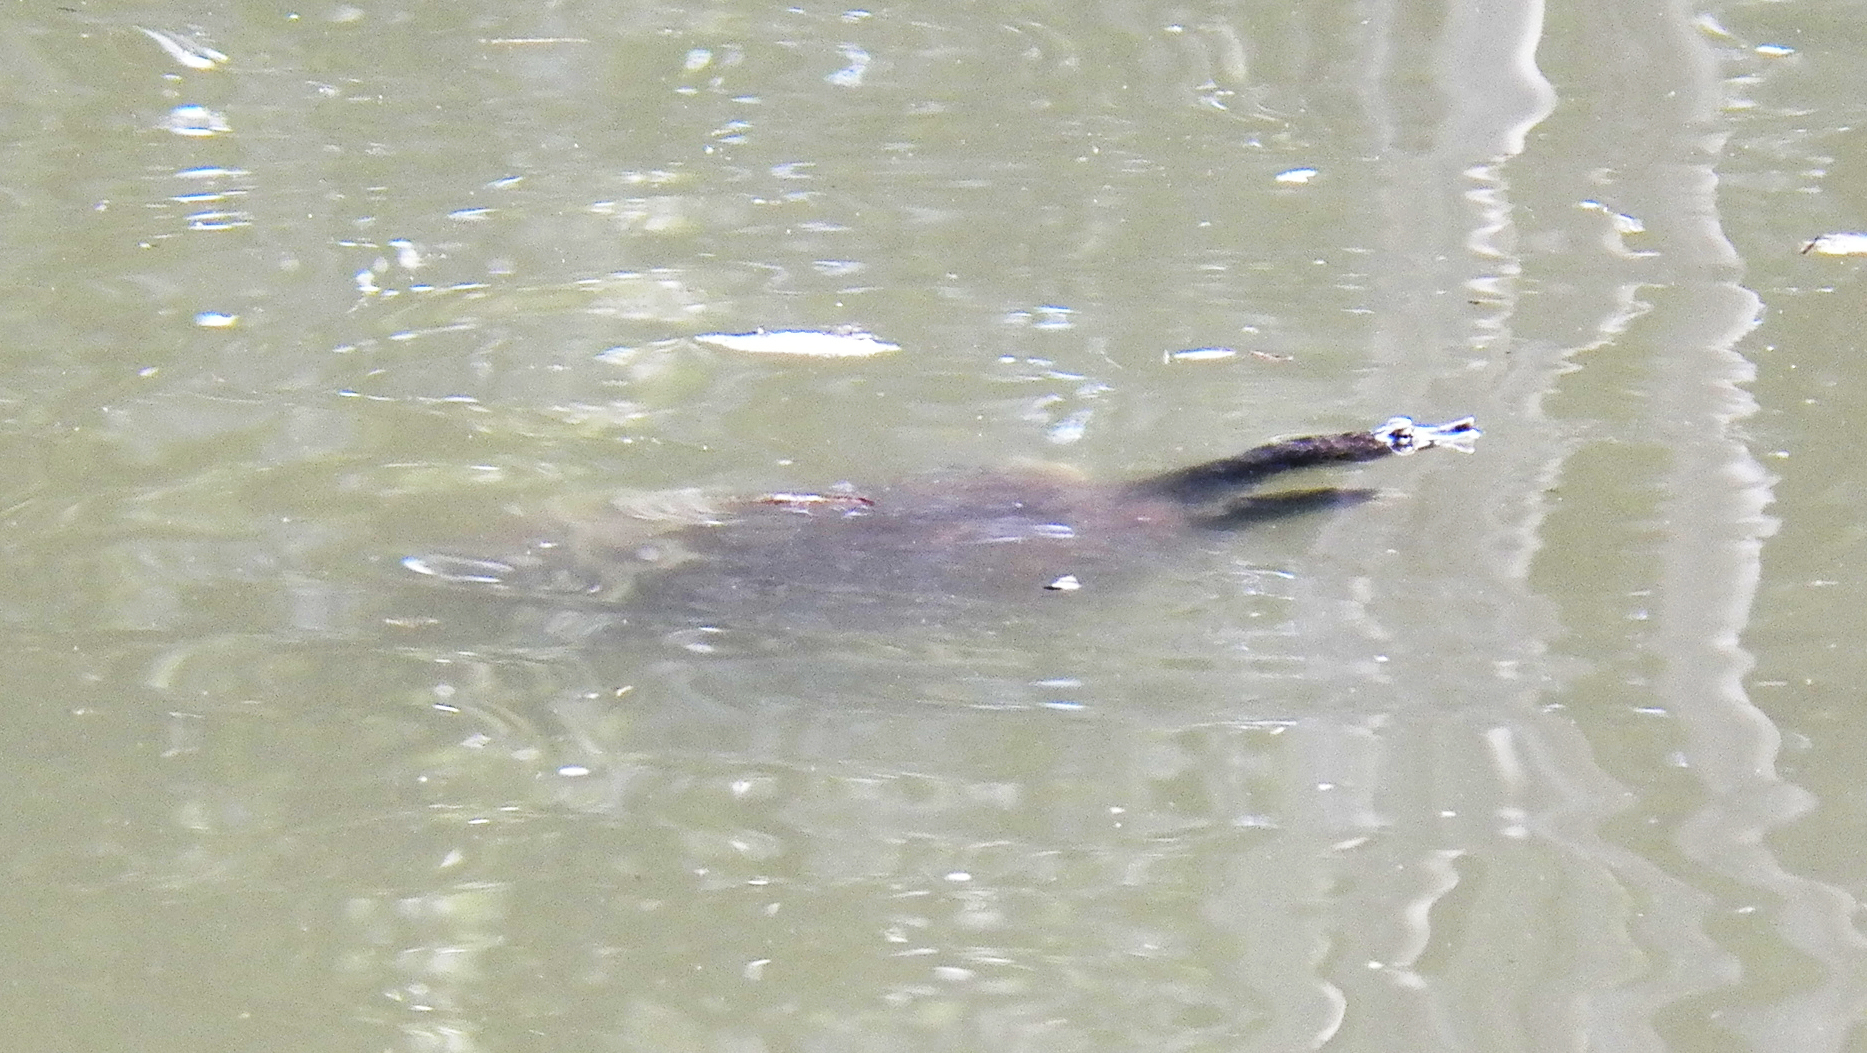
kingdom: Animalia
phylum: Chordata
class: Testudines
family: Trionychidae
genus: Apalone
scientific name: Apalone spinifera
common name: Spiny softshell turtle
